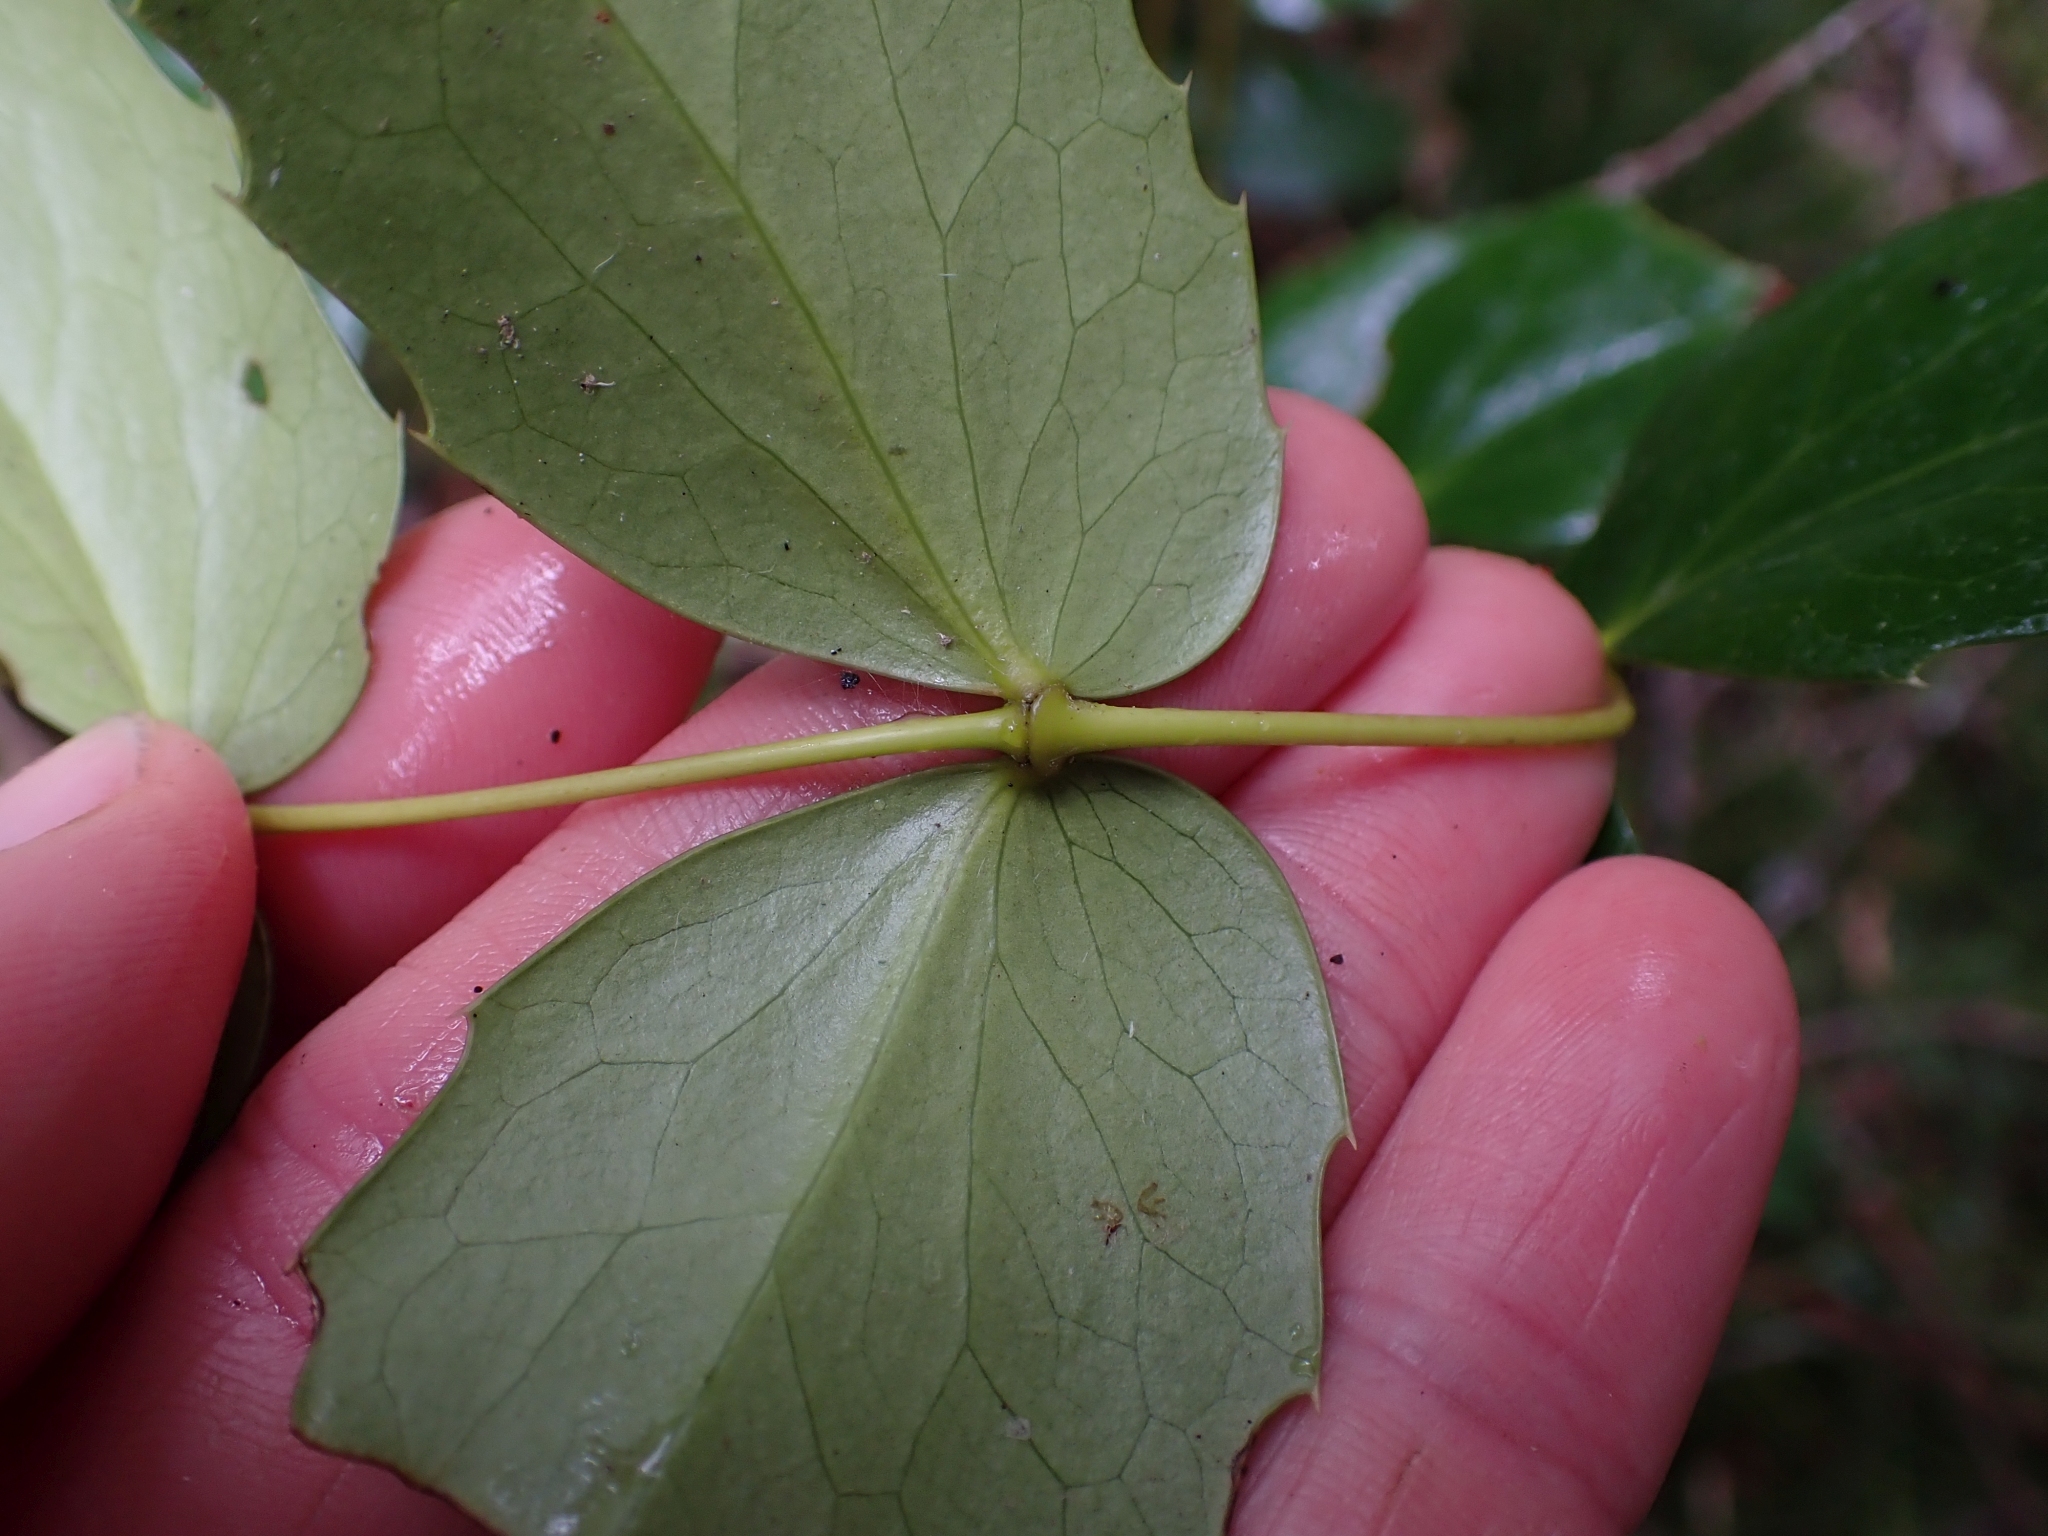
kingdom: Plantae
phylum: Tracheophyta
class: Magnoliopsida
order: Ranunculales
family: Berberidaceae
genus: Mahonia
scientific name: Mahonia nervosa
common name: Cascade oregon-grape
